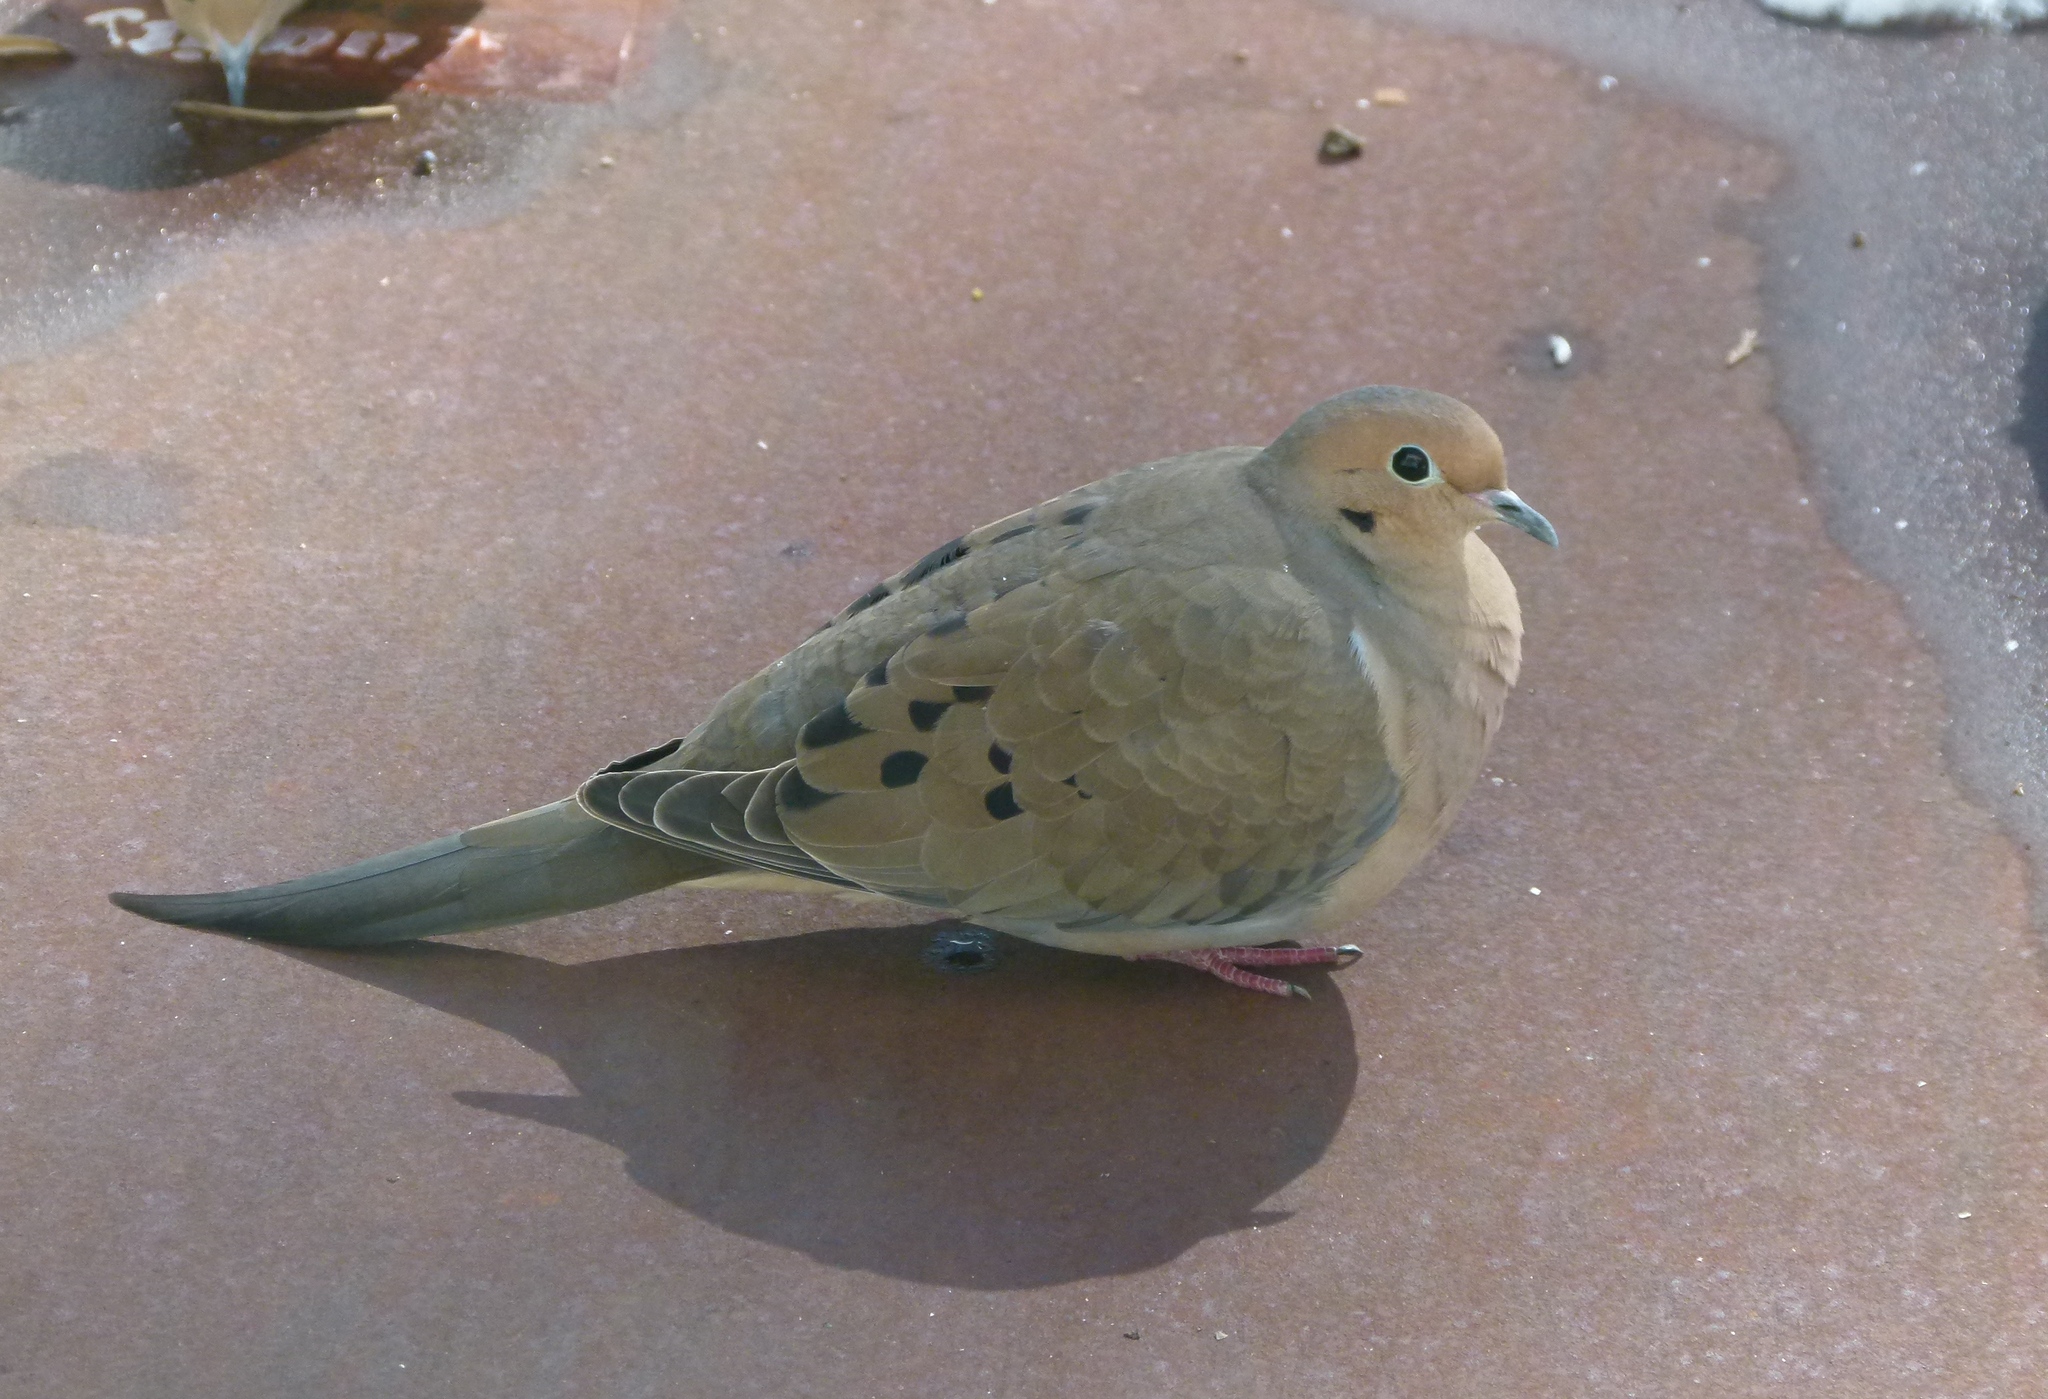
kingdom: Animalia
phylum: Chordata
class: Aves
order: Columbiformes
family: Columbidae
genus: Zenaida
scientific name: Zenaida macroura
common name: Mourning dove
